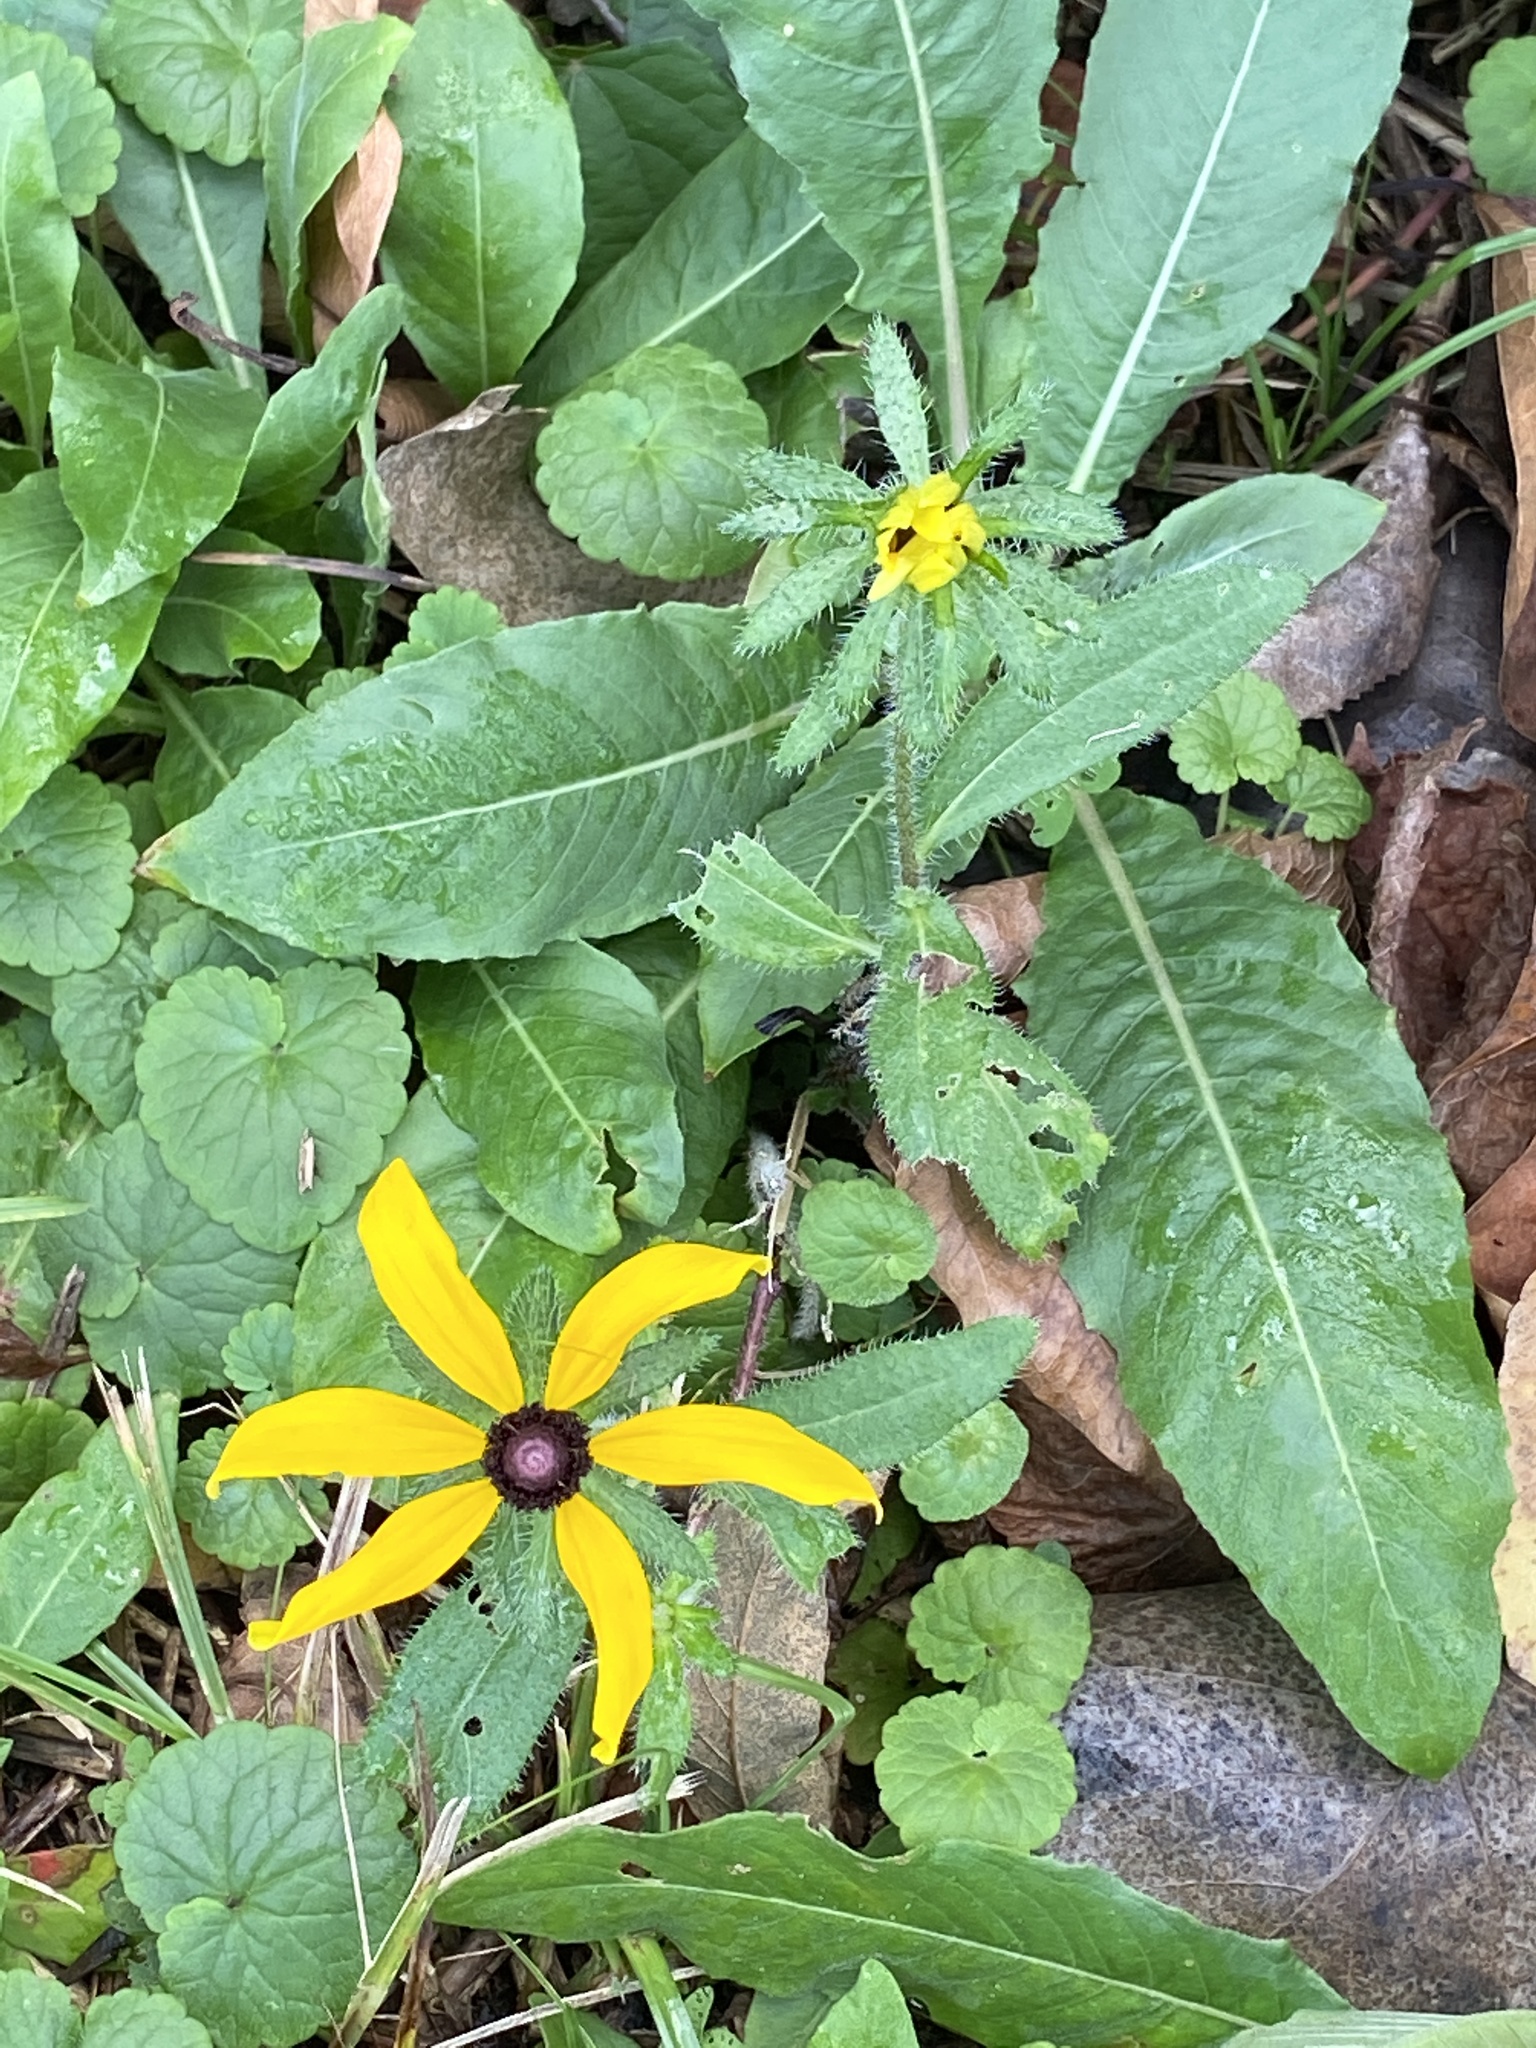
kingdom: Plantae
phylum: Tracheophyta
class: Magnoliopsida
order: Asterales
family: Asteraceae
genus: Rudbeckia
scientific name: Rudbeckia hirta
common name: Black-eyed-susan
